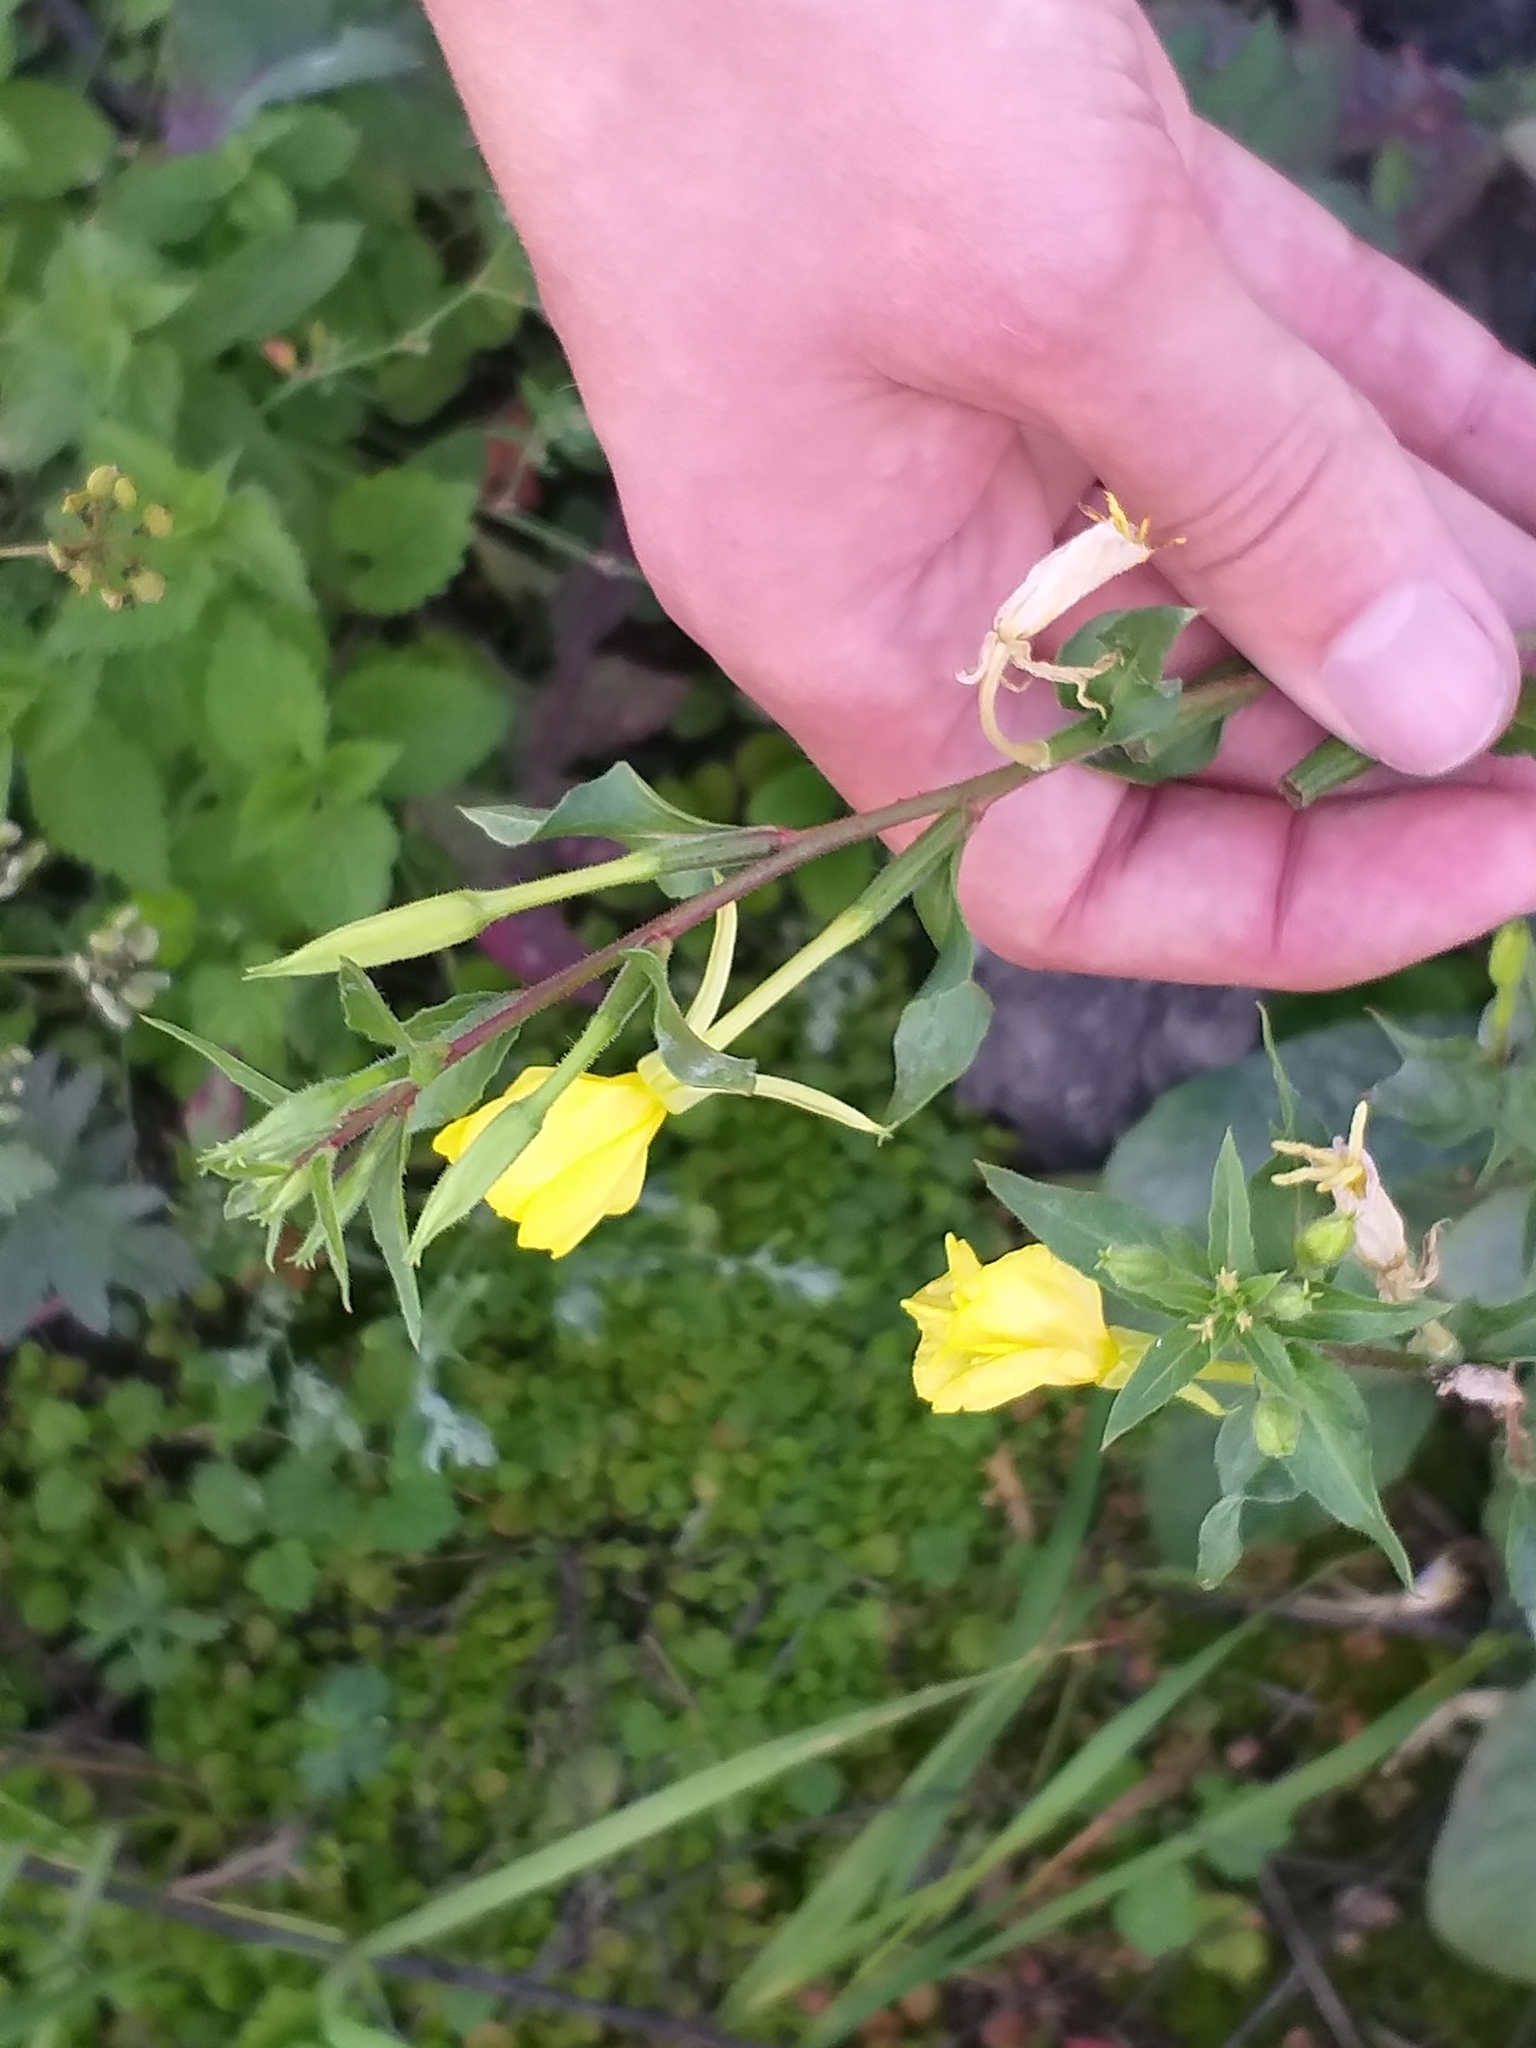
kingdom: Plantae
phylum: Tracheophyta
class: Magnoliopsida
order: Myrtales
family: Onagraceae
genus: Oenothera
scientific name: Oenothera rubricaulis
